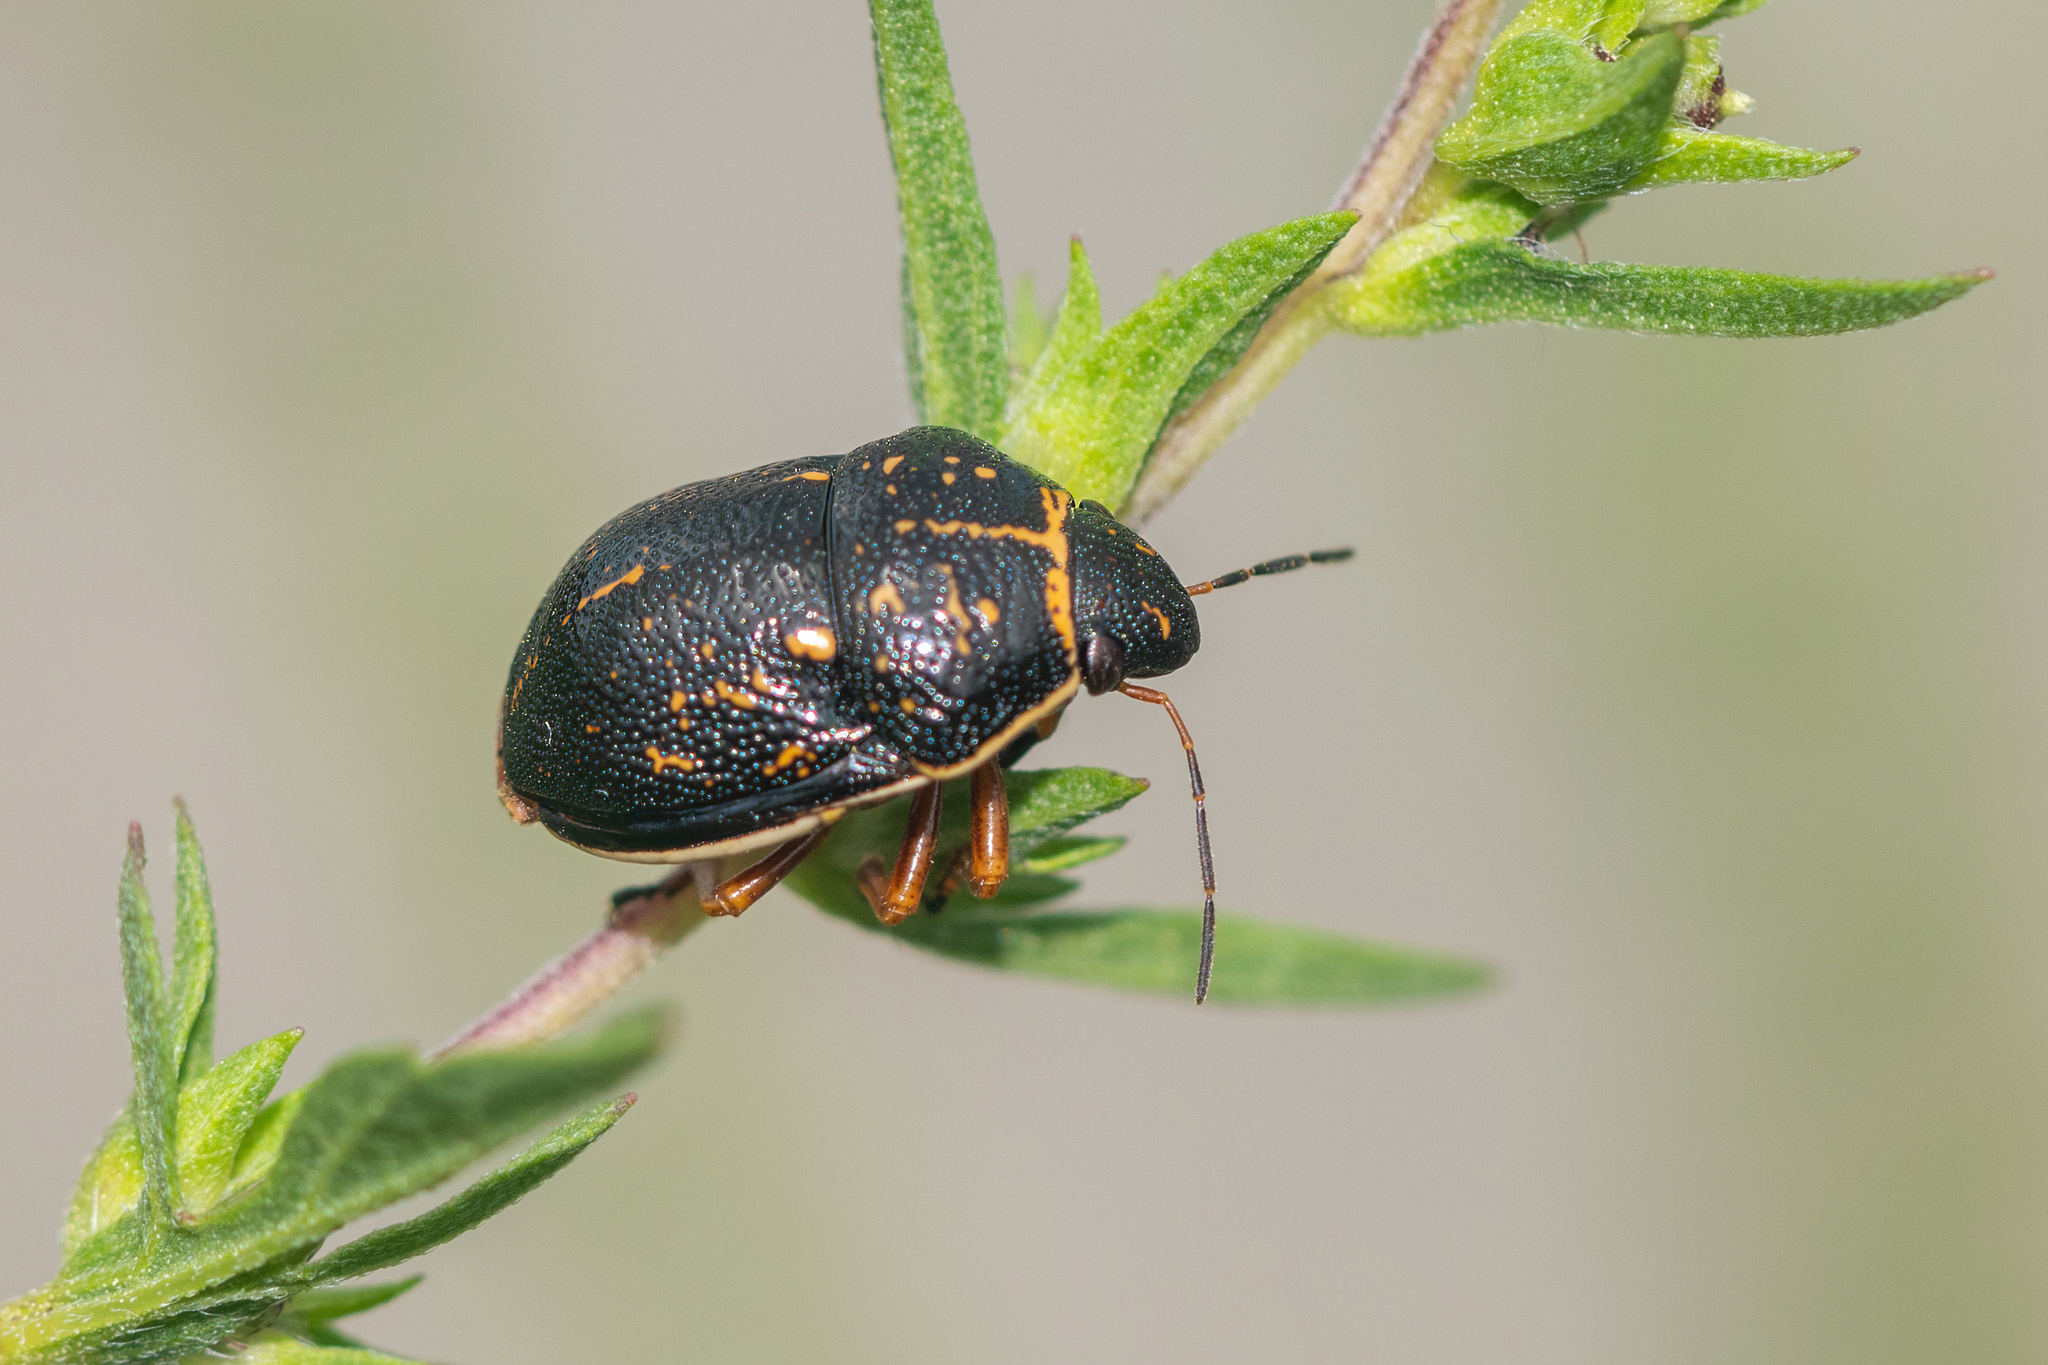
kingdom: Animalia
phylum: Arthropoda
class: Insecta
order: Hemiptera
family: Scutelleridae
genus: Orsilochides
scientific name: Orsilochides guttata
